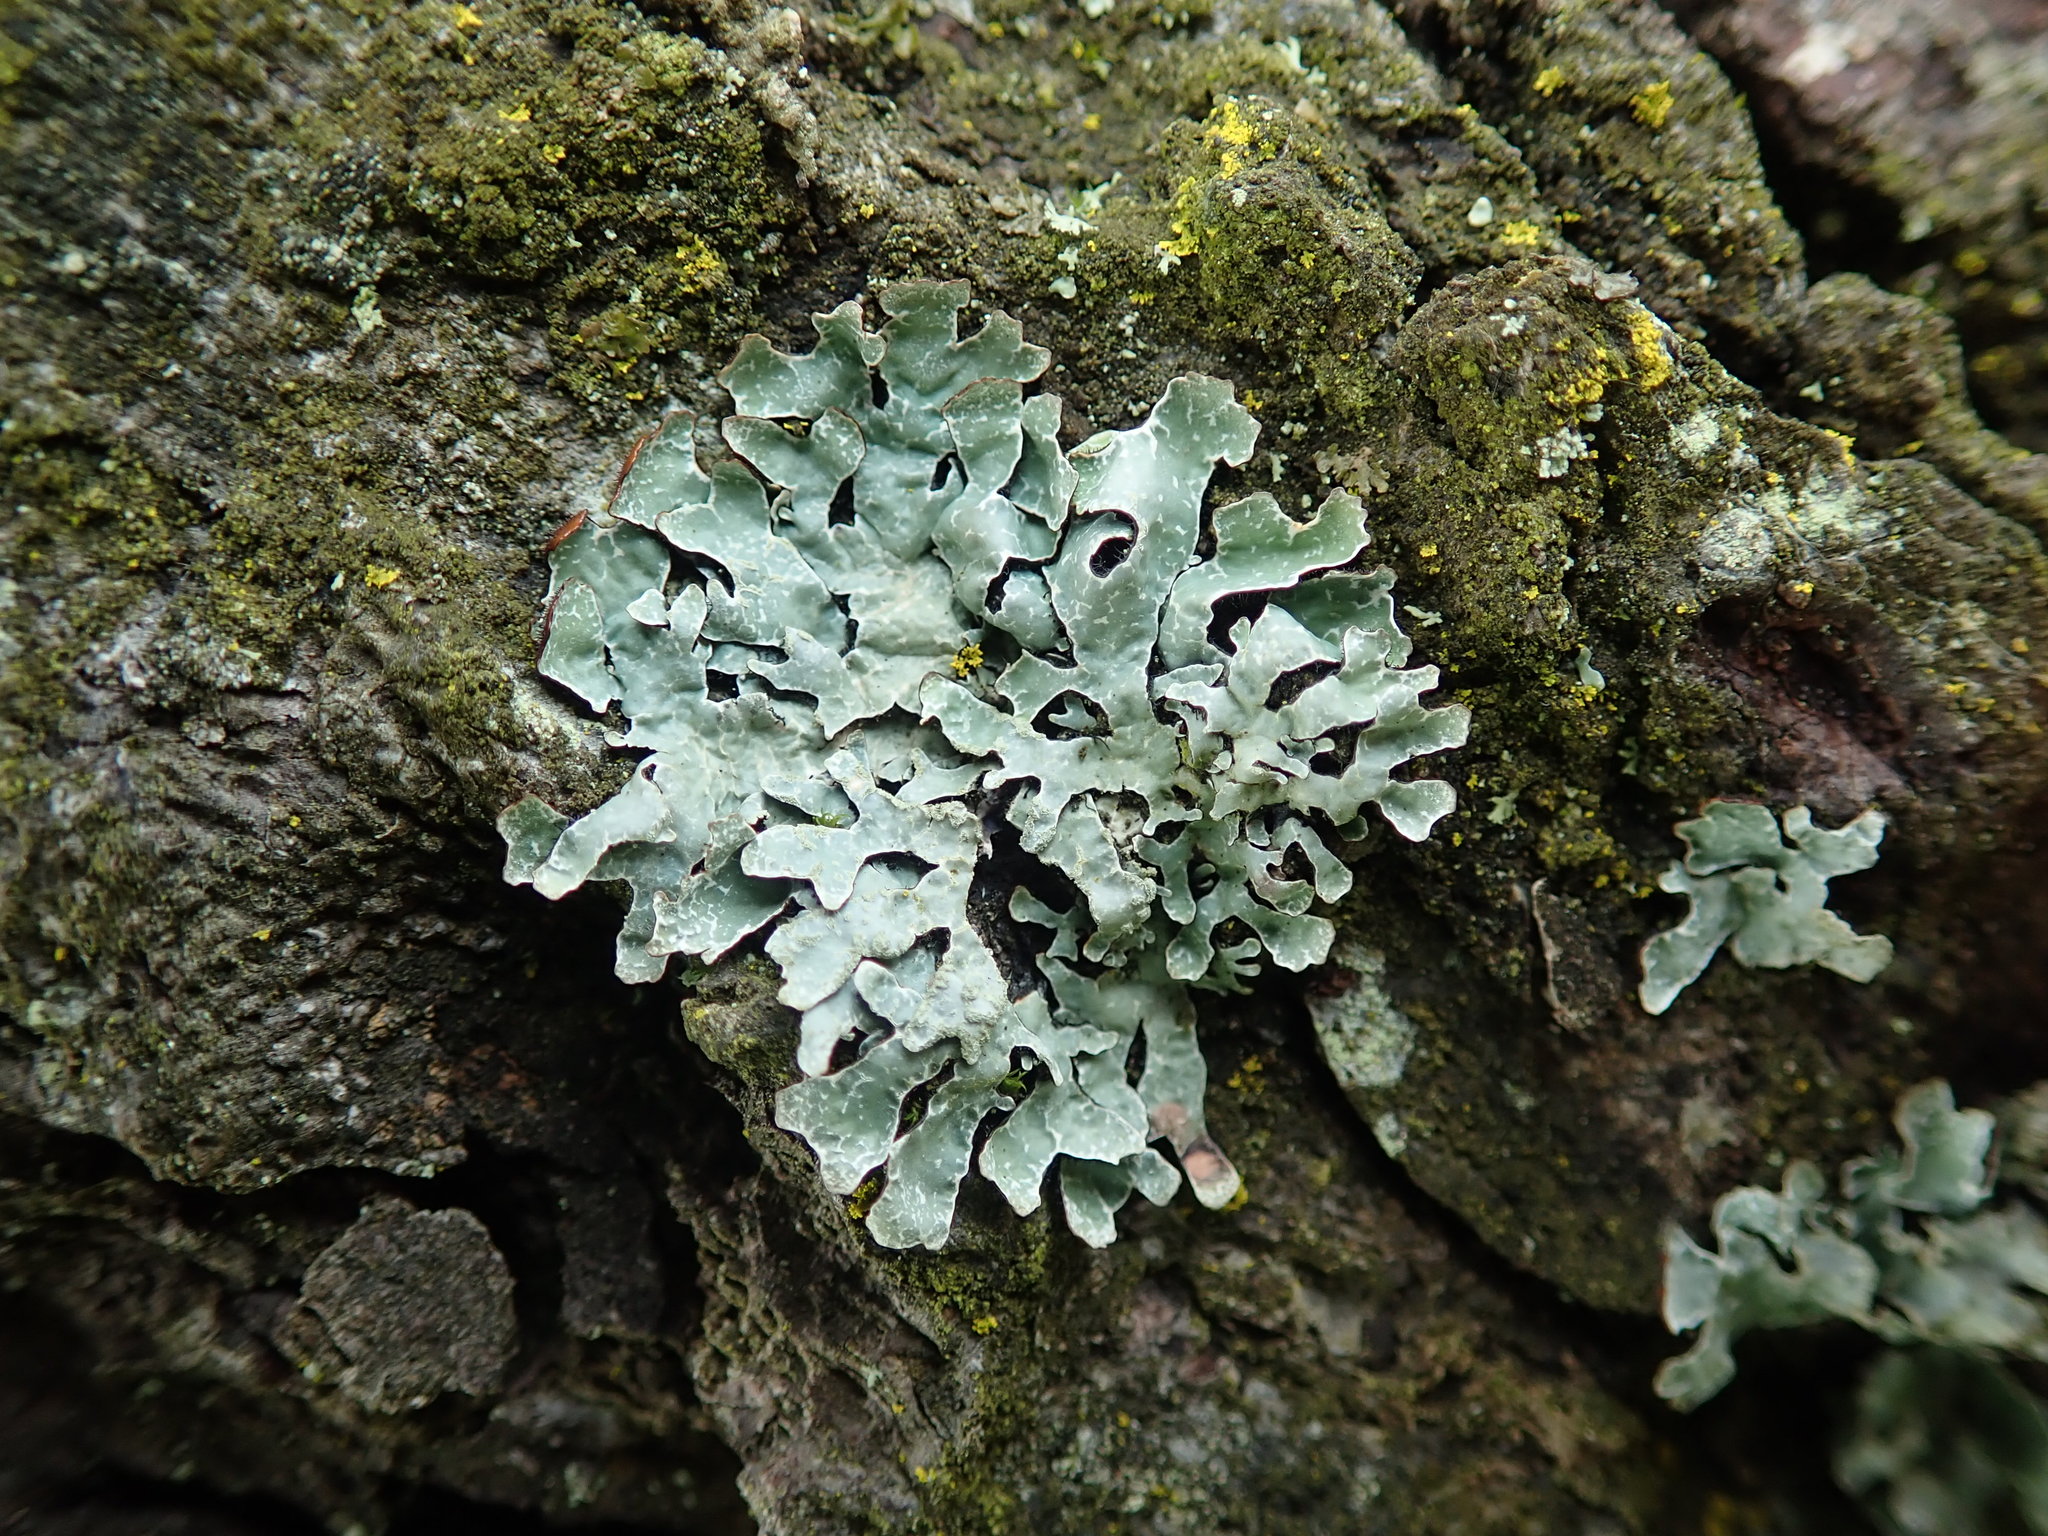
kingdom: Fungi
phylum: Ascomycota
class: Lecanoromycetes
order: Lecanorales
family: Parmeliaceae
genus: Parmelia
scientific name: Parmelia sulcata
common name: Netted shield lichen
